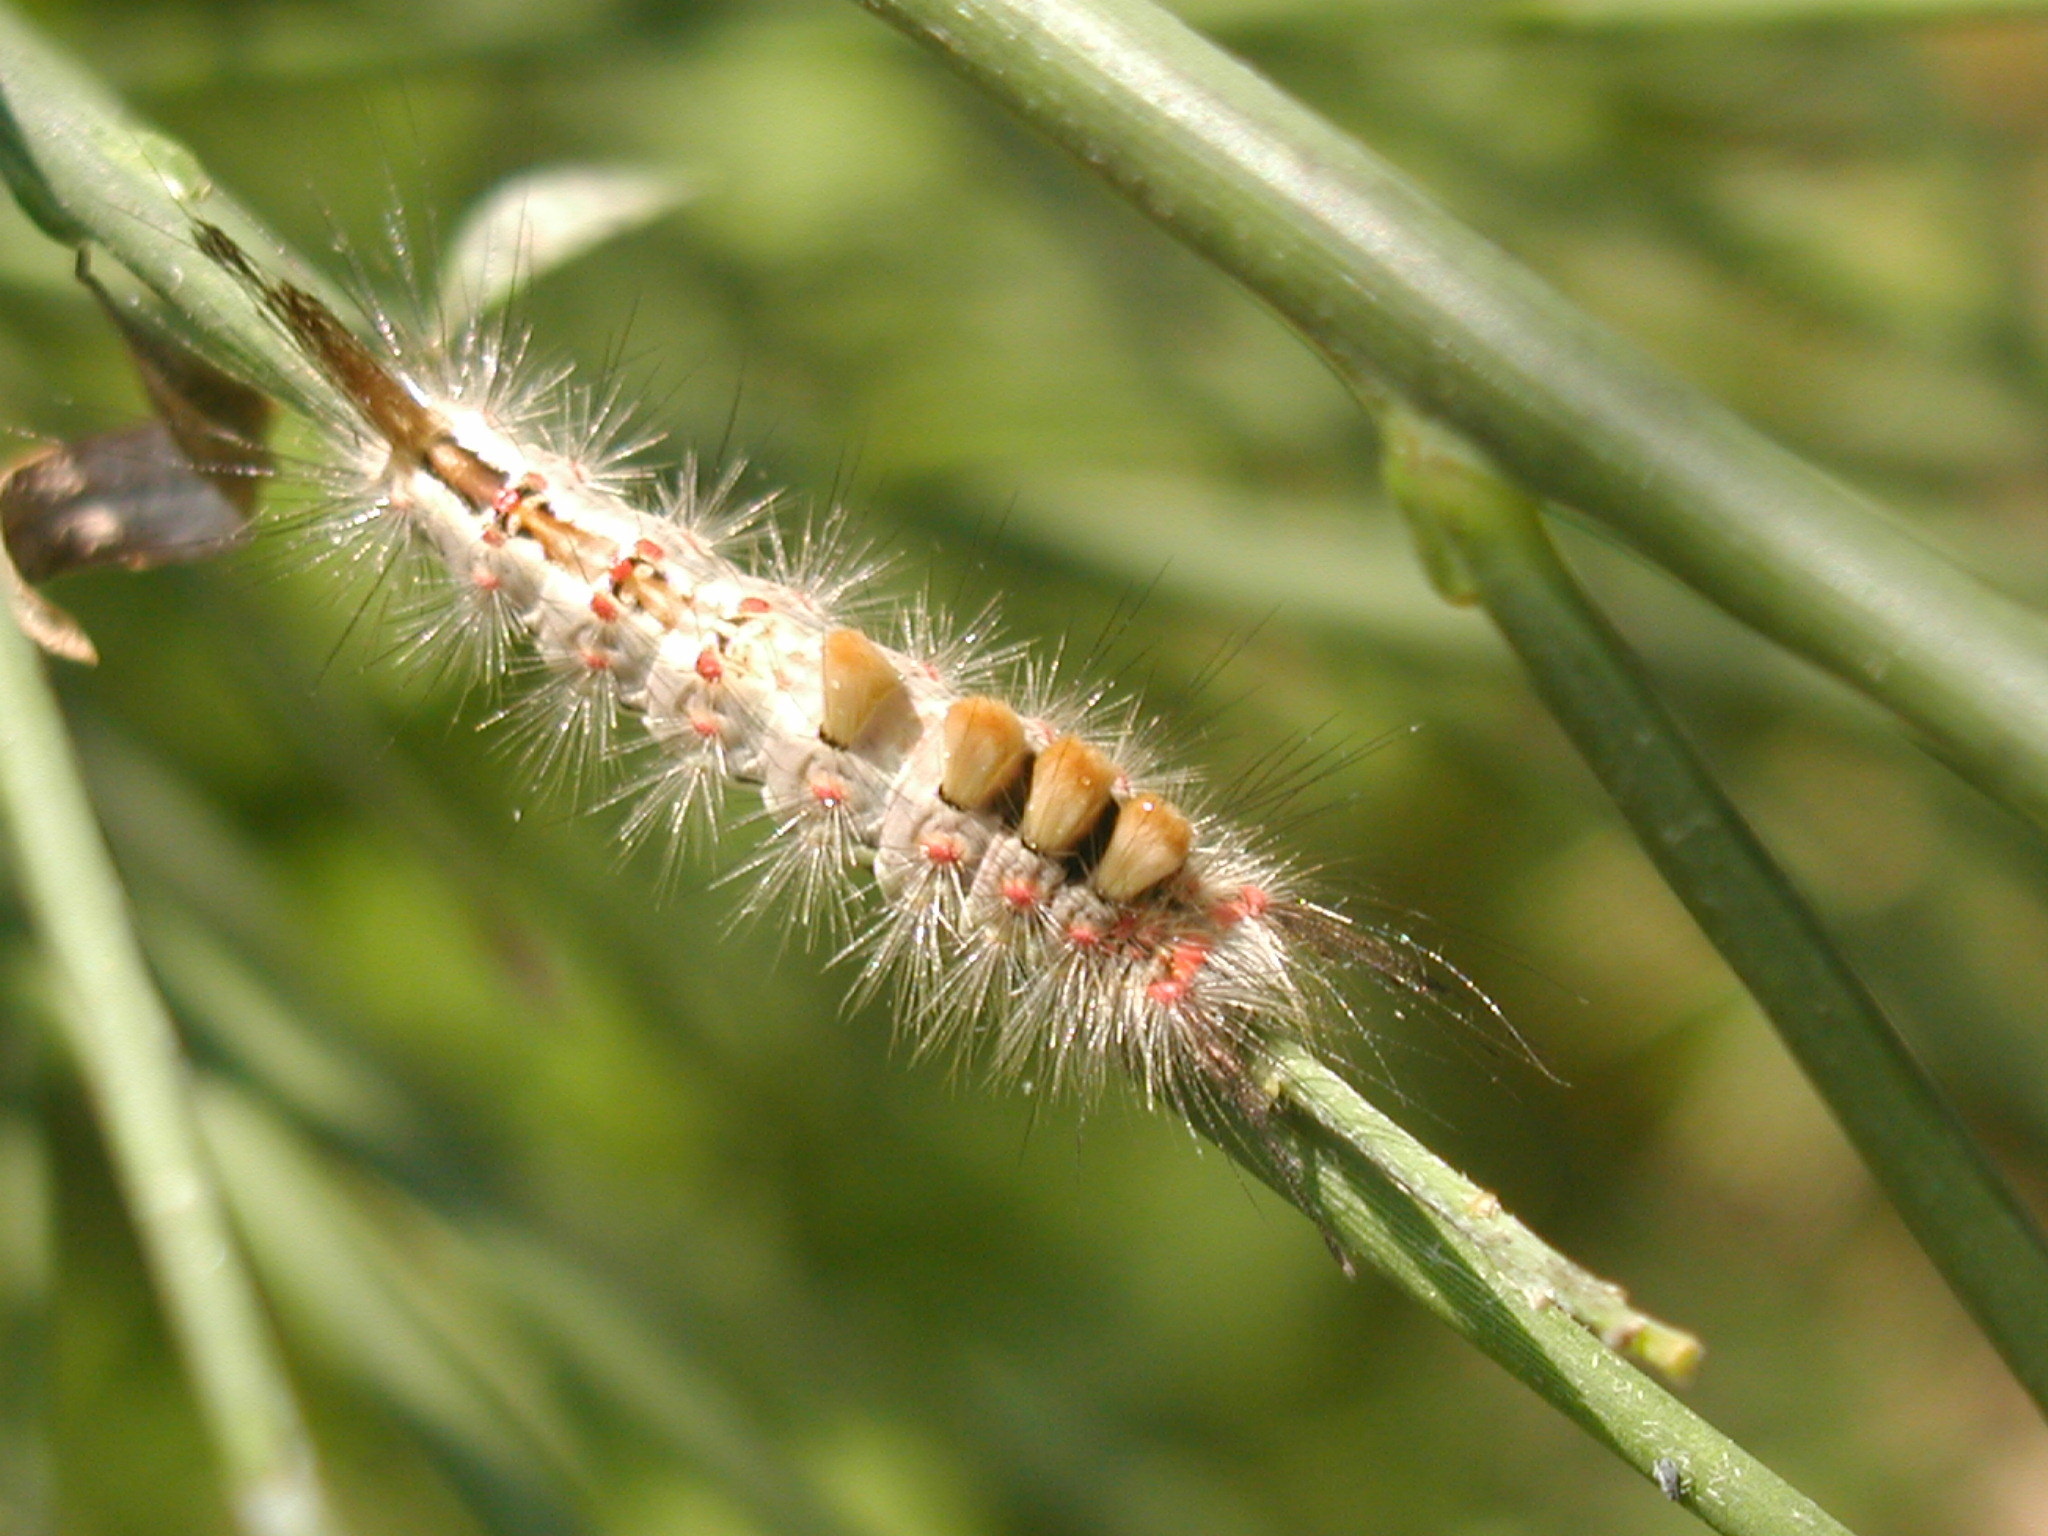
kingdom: Animalia
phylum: Arthropoda
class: Insecta
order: Lepidoptera
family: Erebidae
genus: Orgyia
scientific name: Orgyia antiqua
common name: Vapourer
